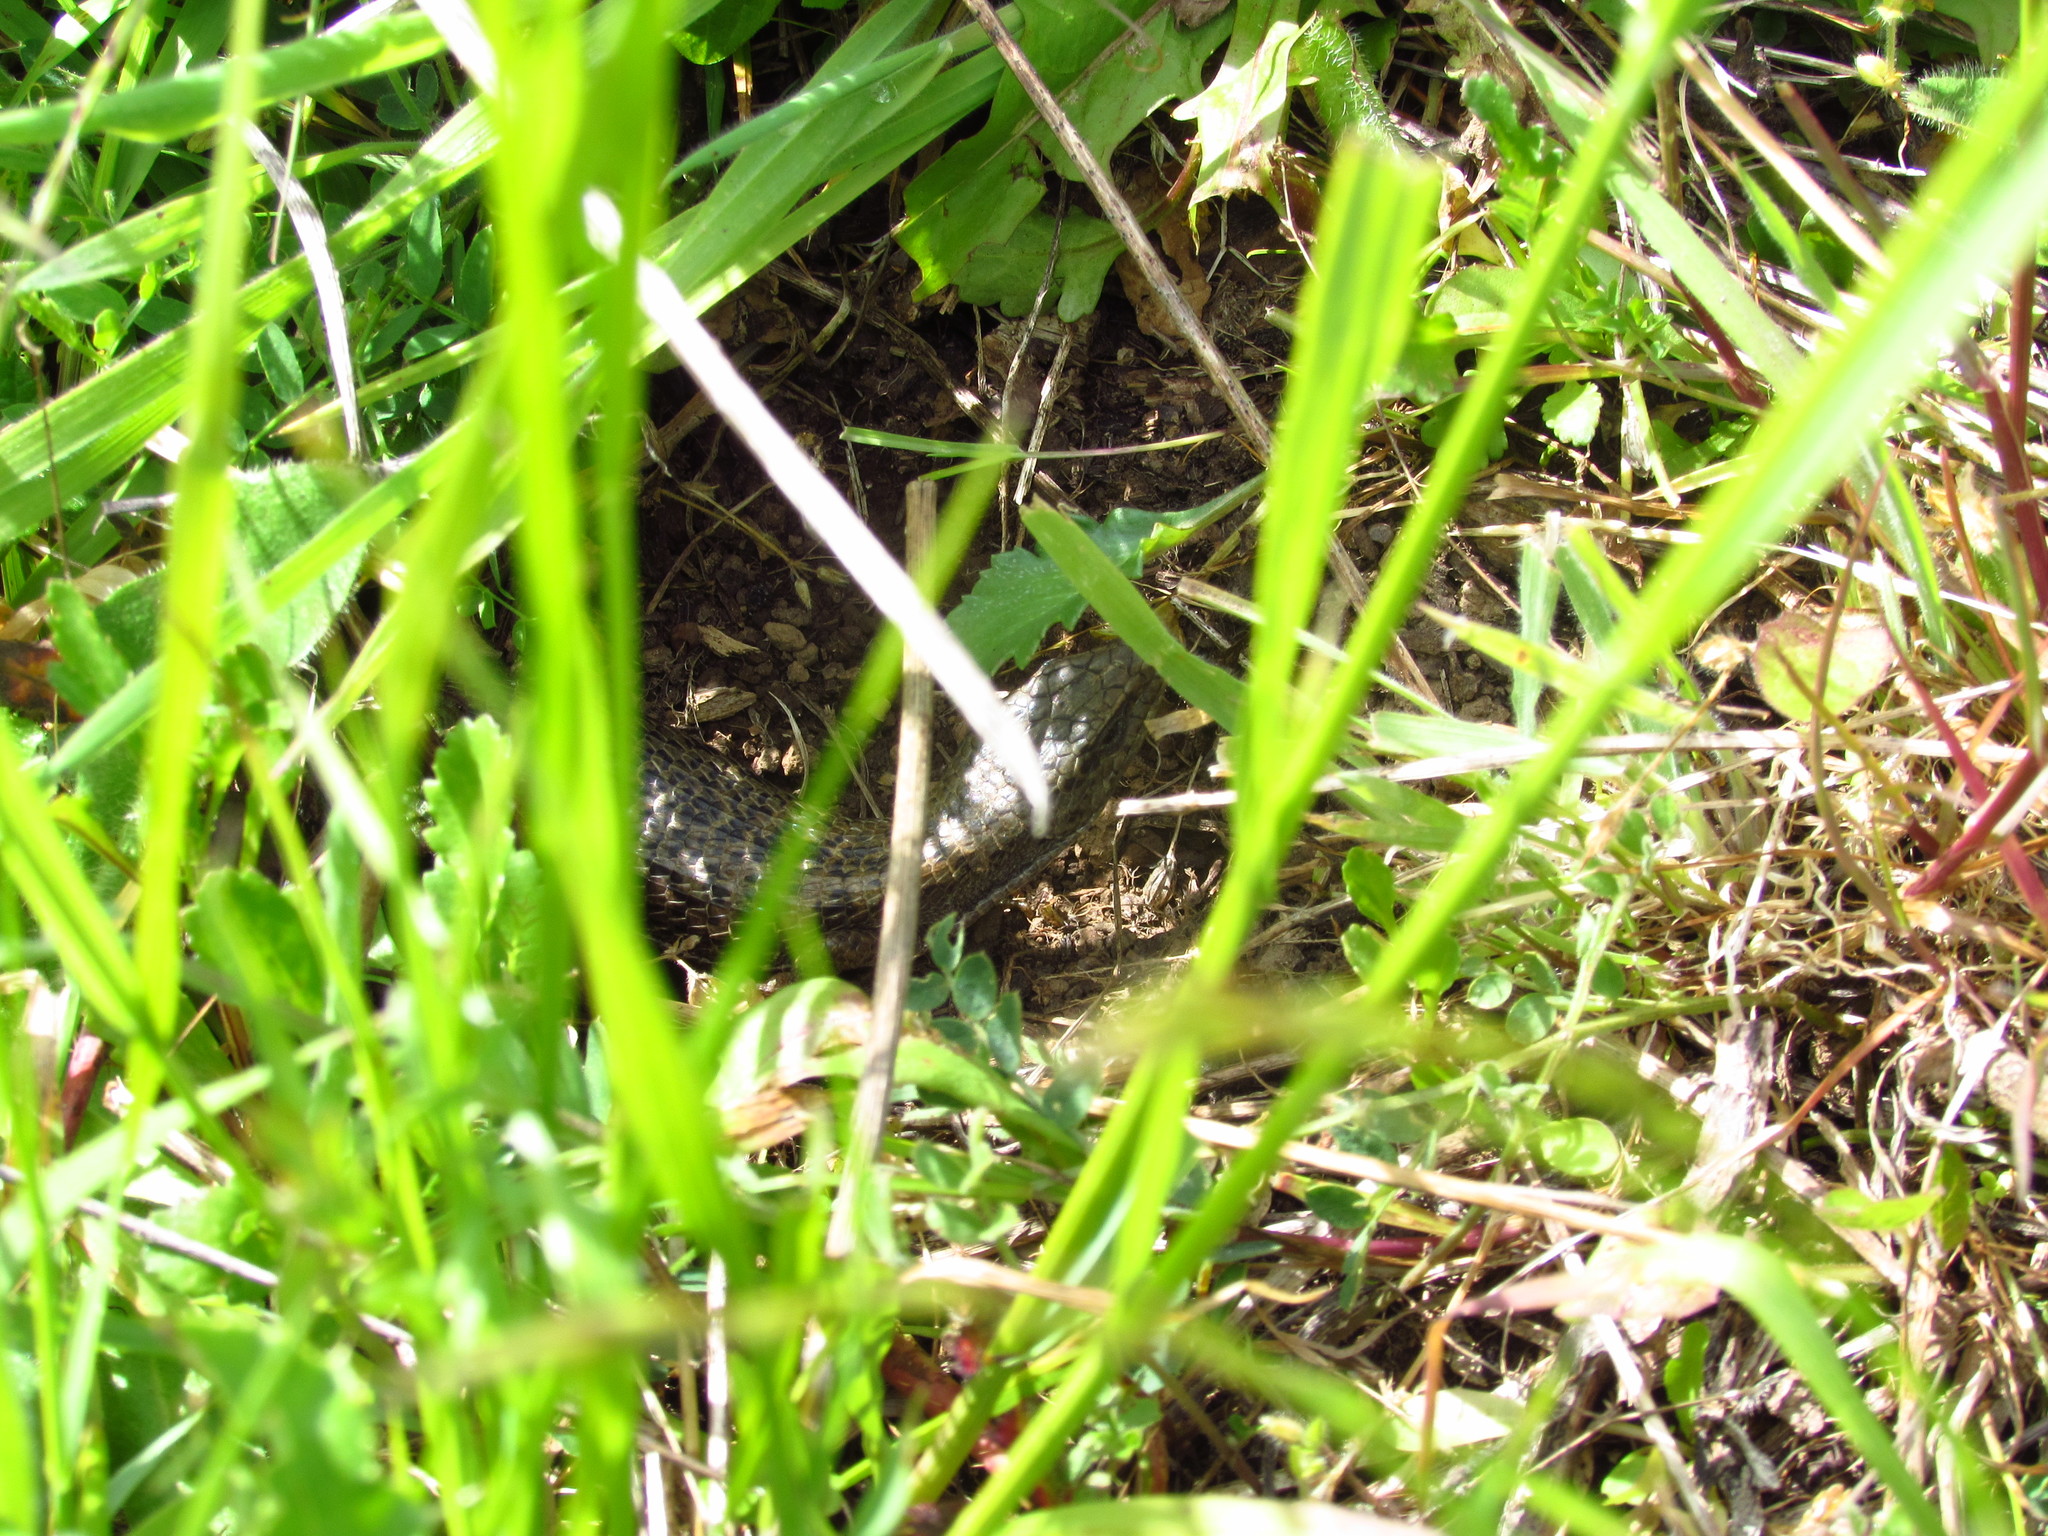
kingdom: Animalia
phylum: Chordata
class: Squamata
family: Anguidae
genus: Elgaria
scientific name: Elgaria coerulea
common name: Northern alligator lizard
